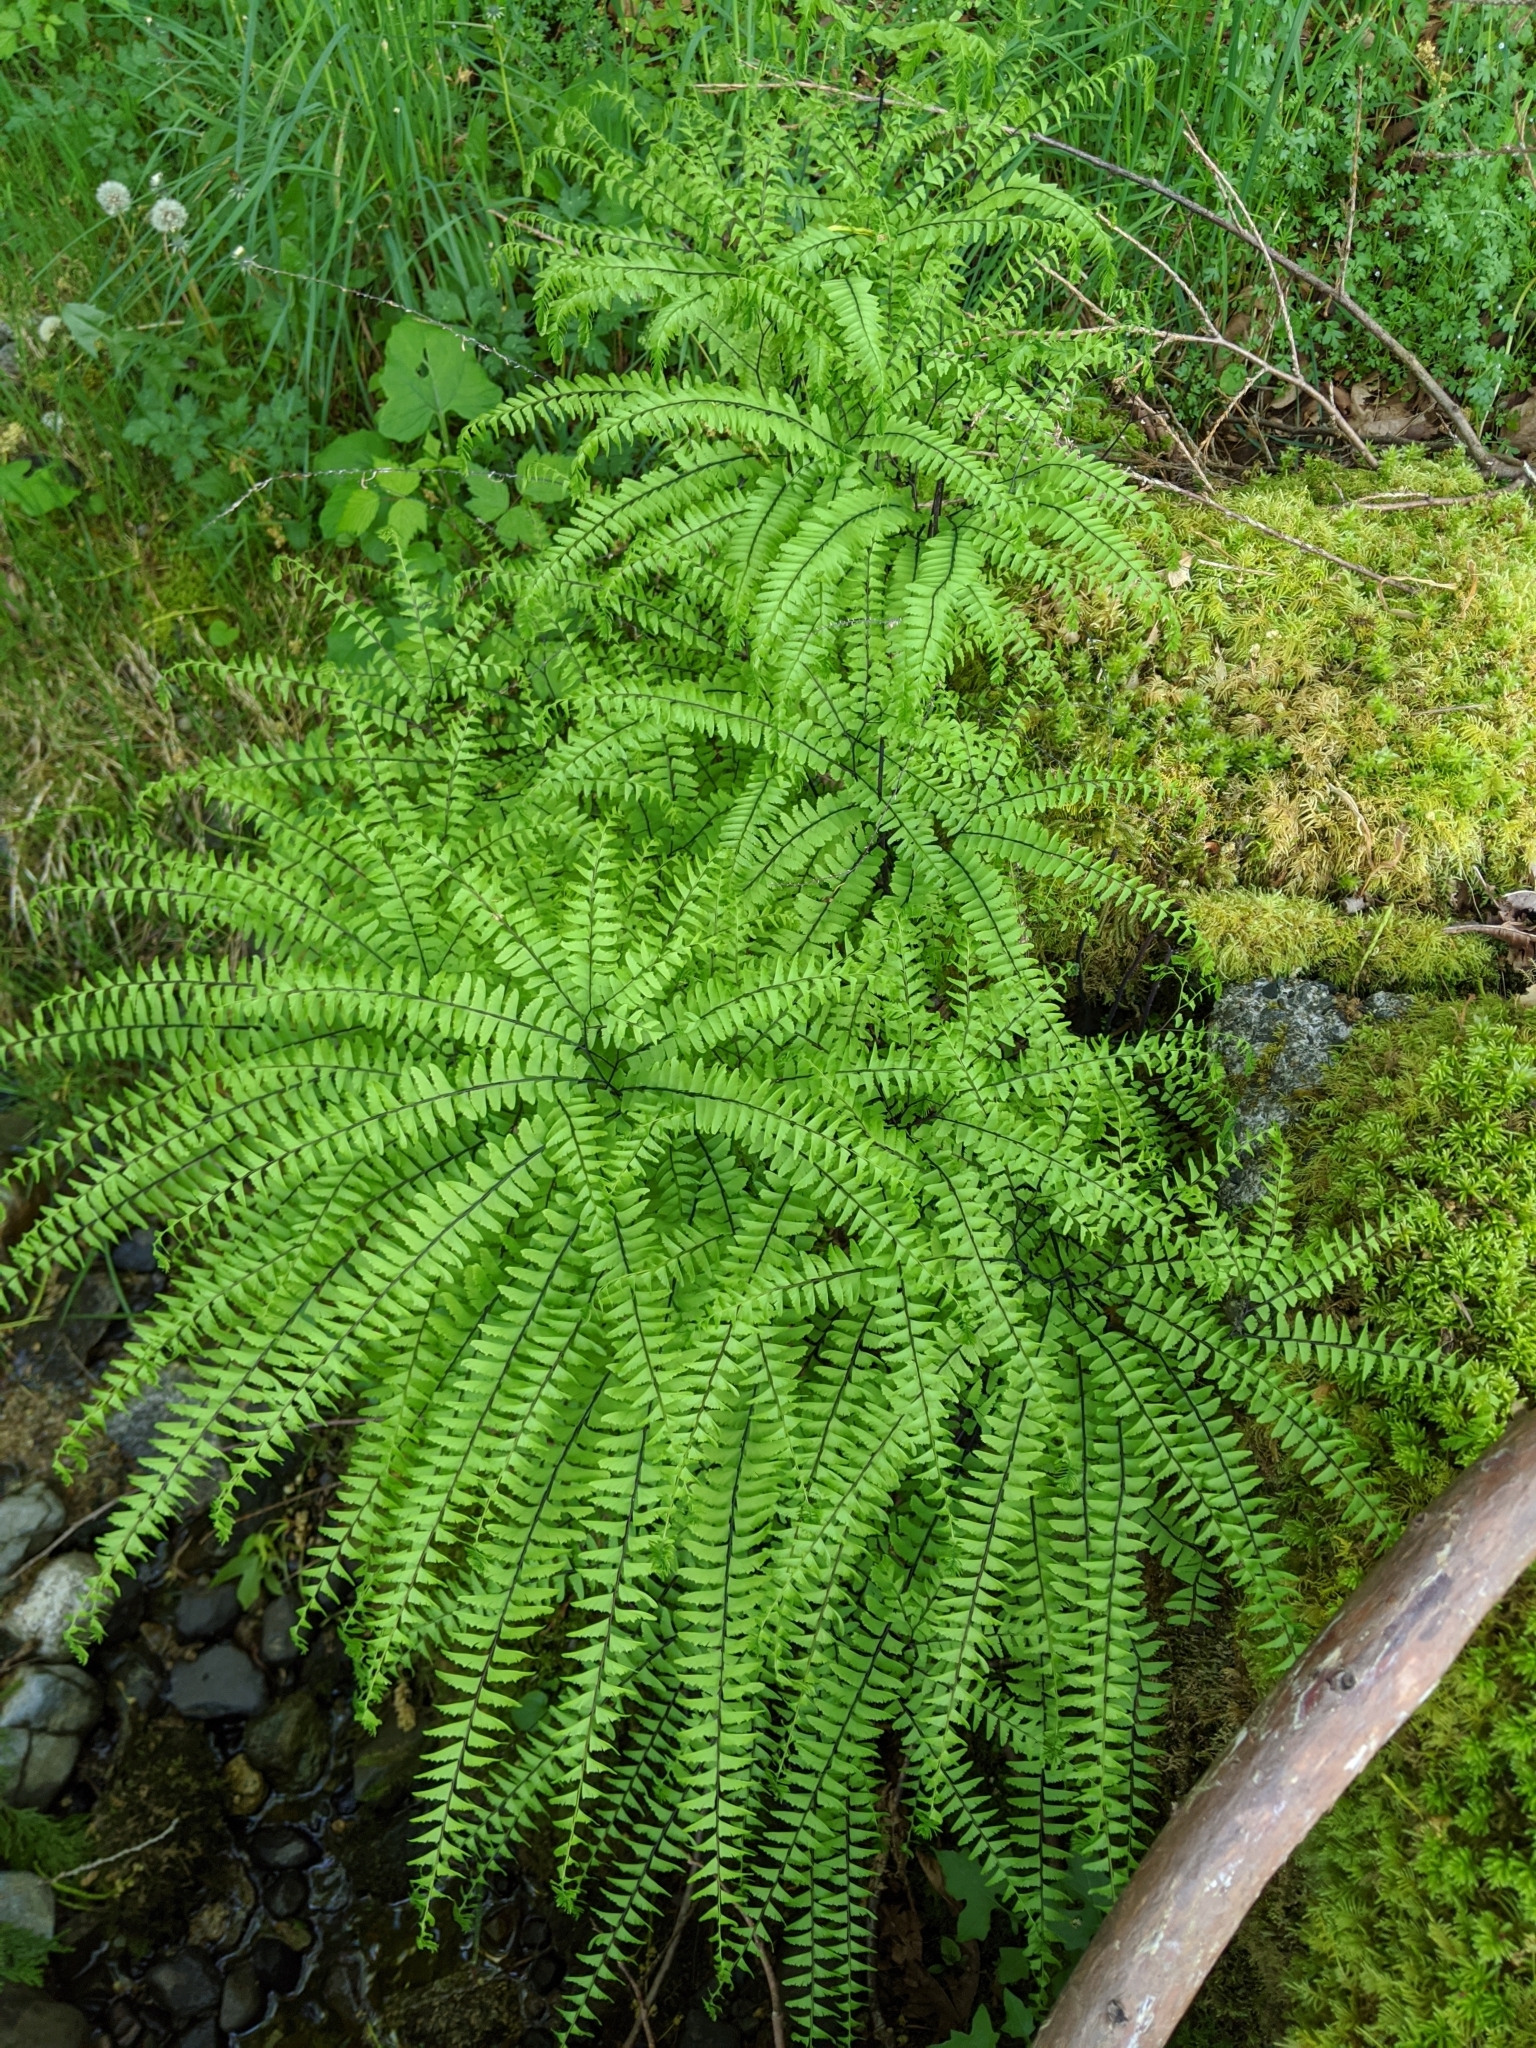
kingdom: Plantae
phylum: Tracheophyta
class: Polypodiopsida
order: Polypodiales
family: Pteridaceae
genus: Adiantum
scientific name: Adiantum aleuticum
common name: Aleutian maidenhair fern
